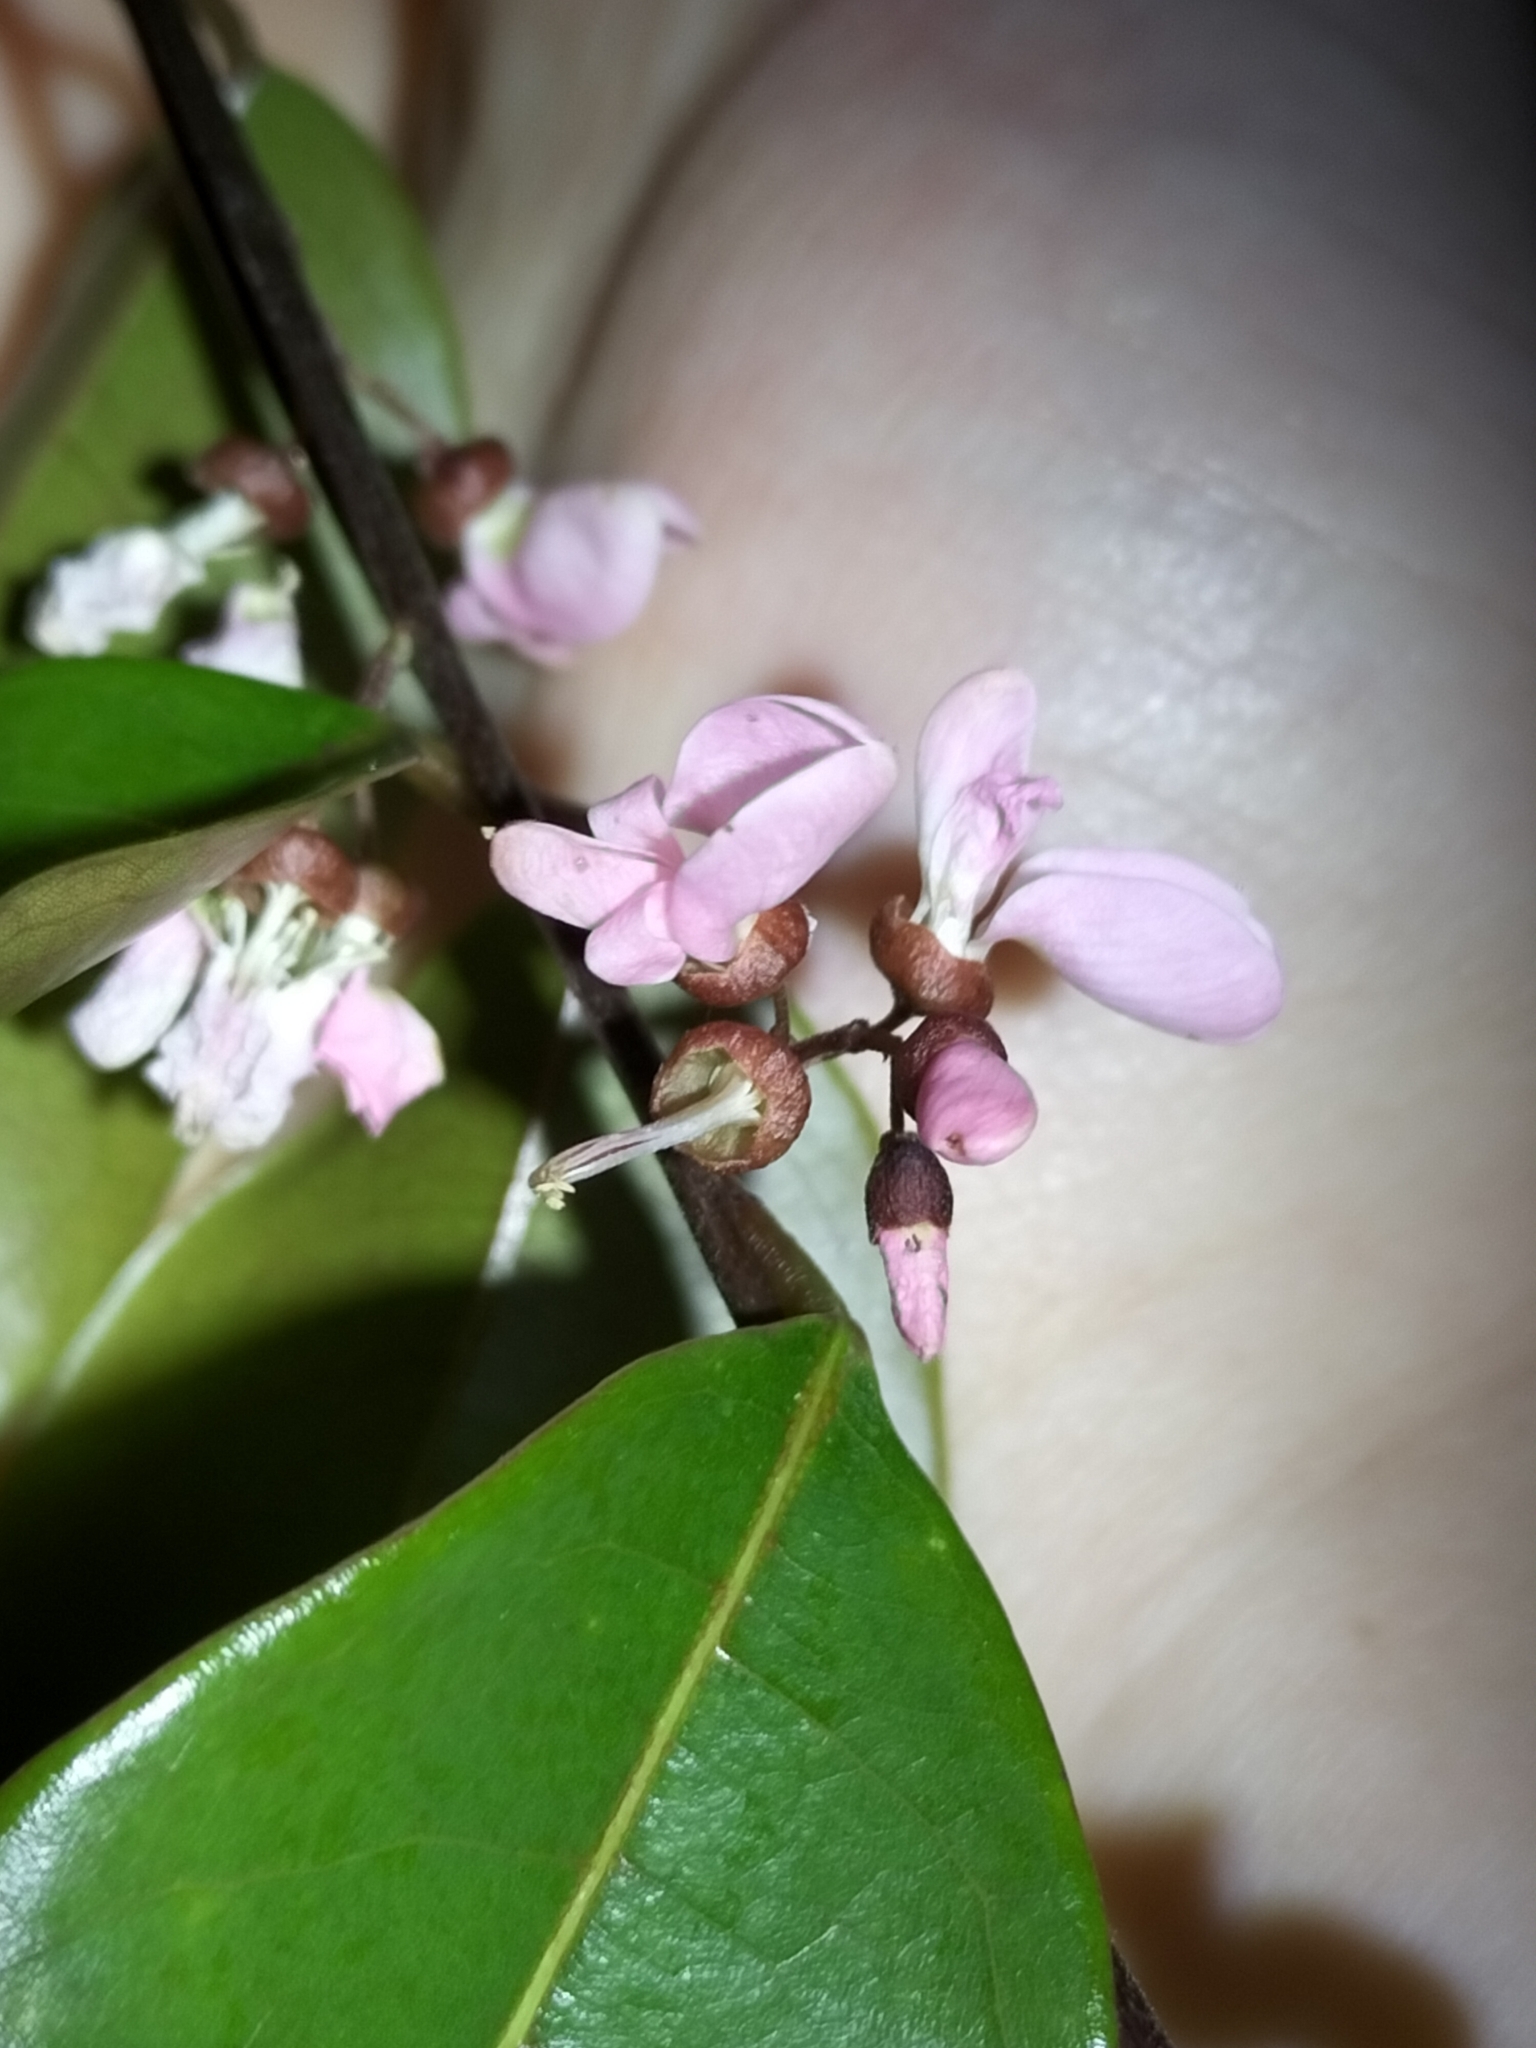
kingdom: Plantae
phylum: Tracheophyta
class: Magnoliopsida
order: Fabales
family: Fabaceae
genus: Derris
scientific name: Derris trifoliata
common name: Three-leaf derris
